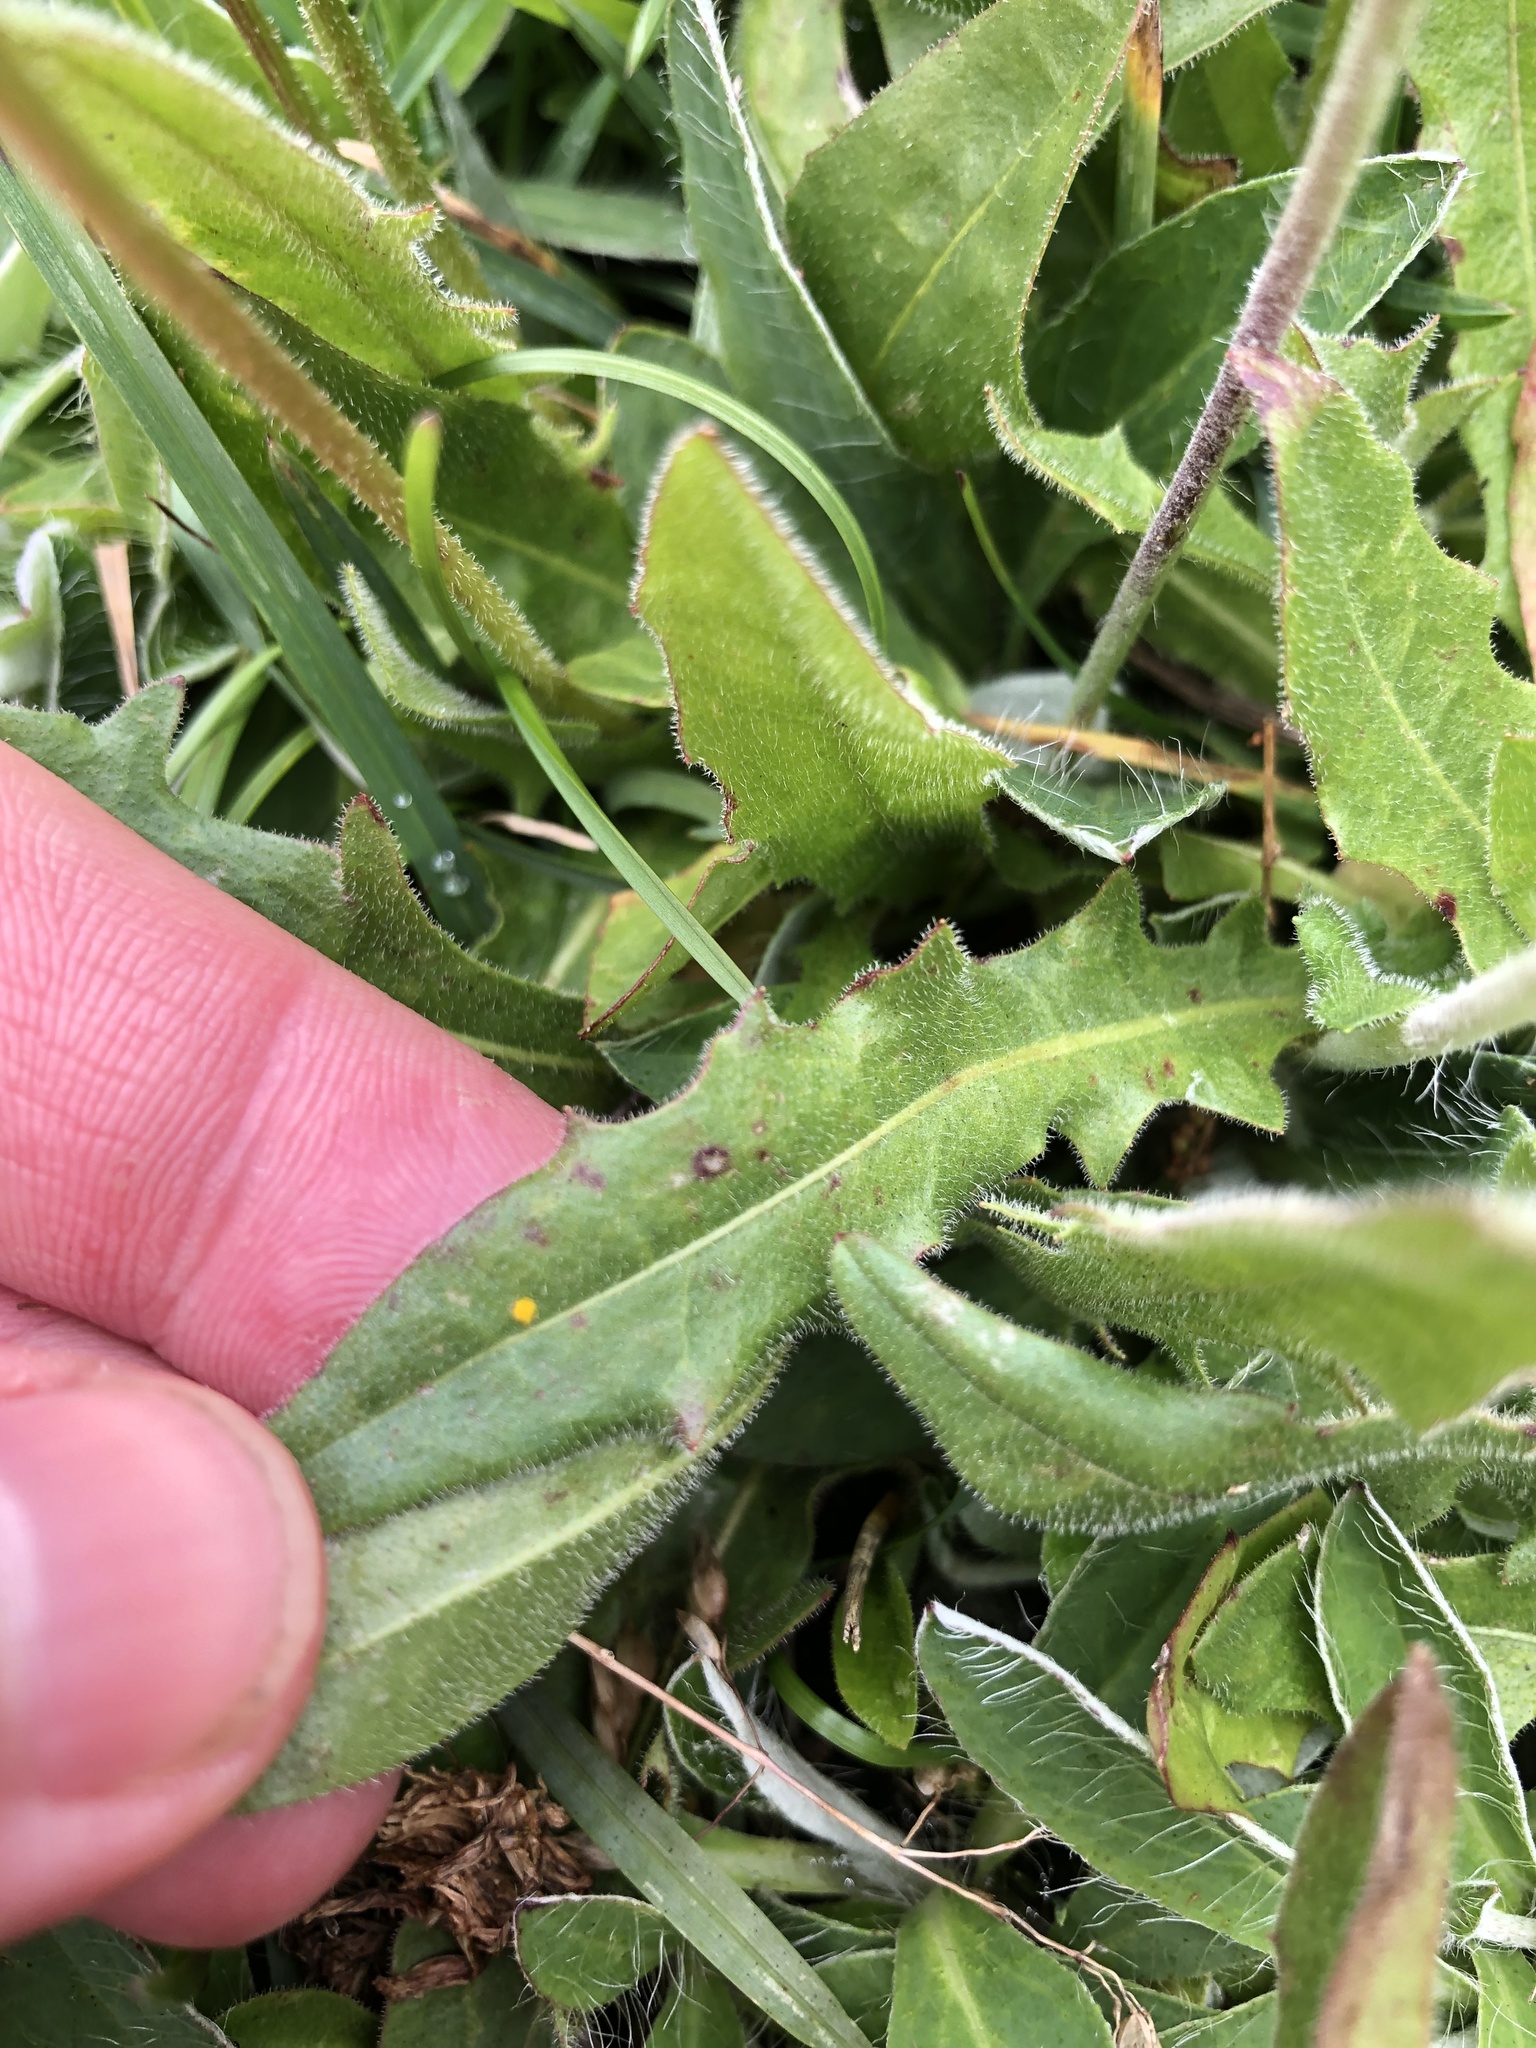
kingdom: Plantae
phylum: Tracheophyta
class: Magnoliopsida
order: Asterales
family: Asteraceae
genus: Crepis
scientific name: Crepis aurea
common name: Golden hawk's-beard
